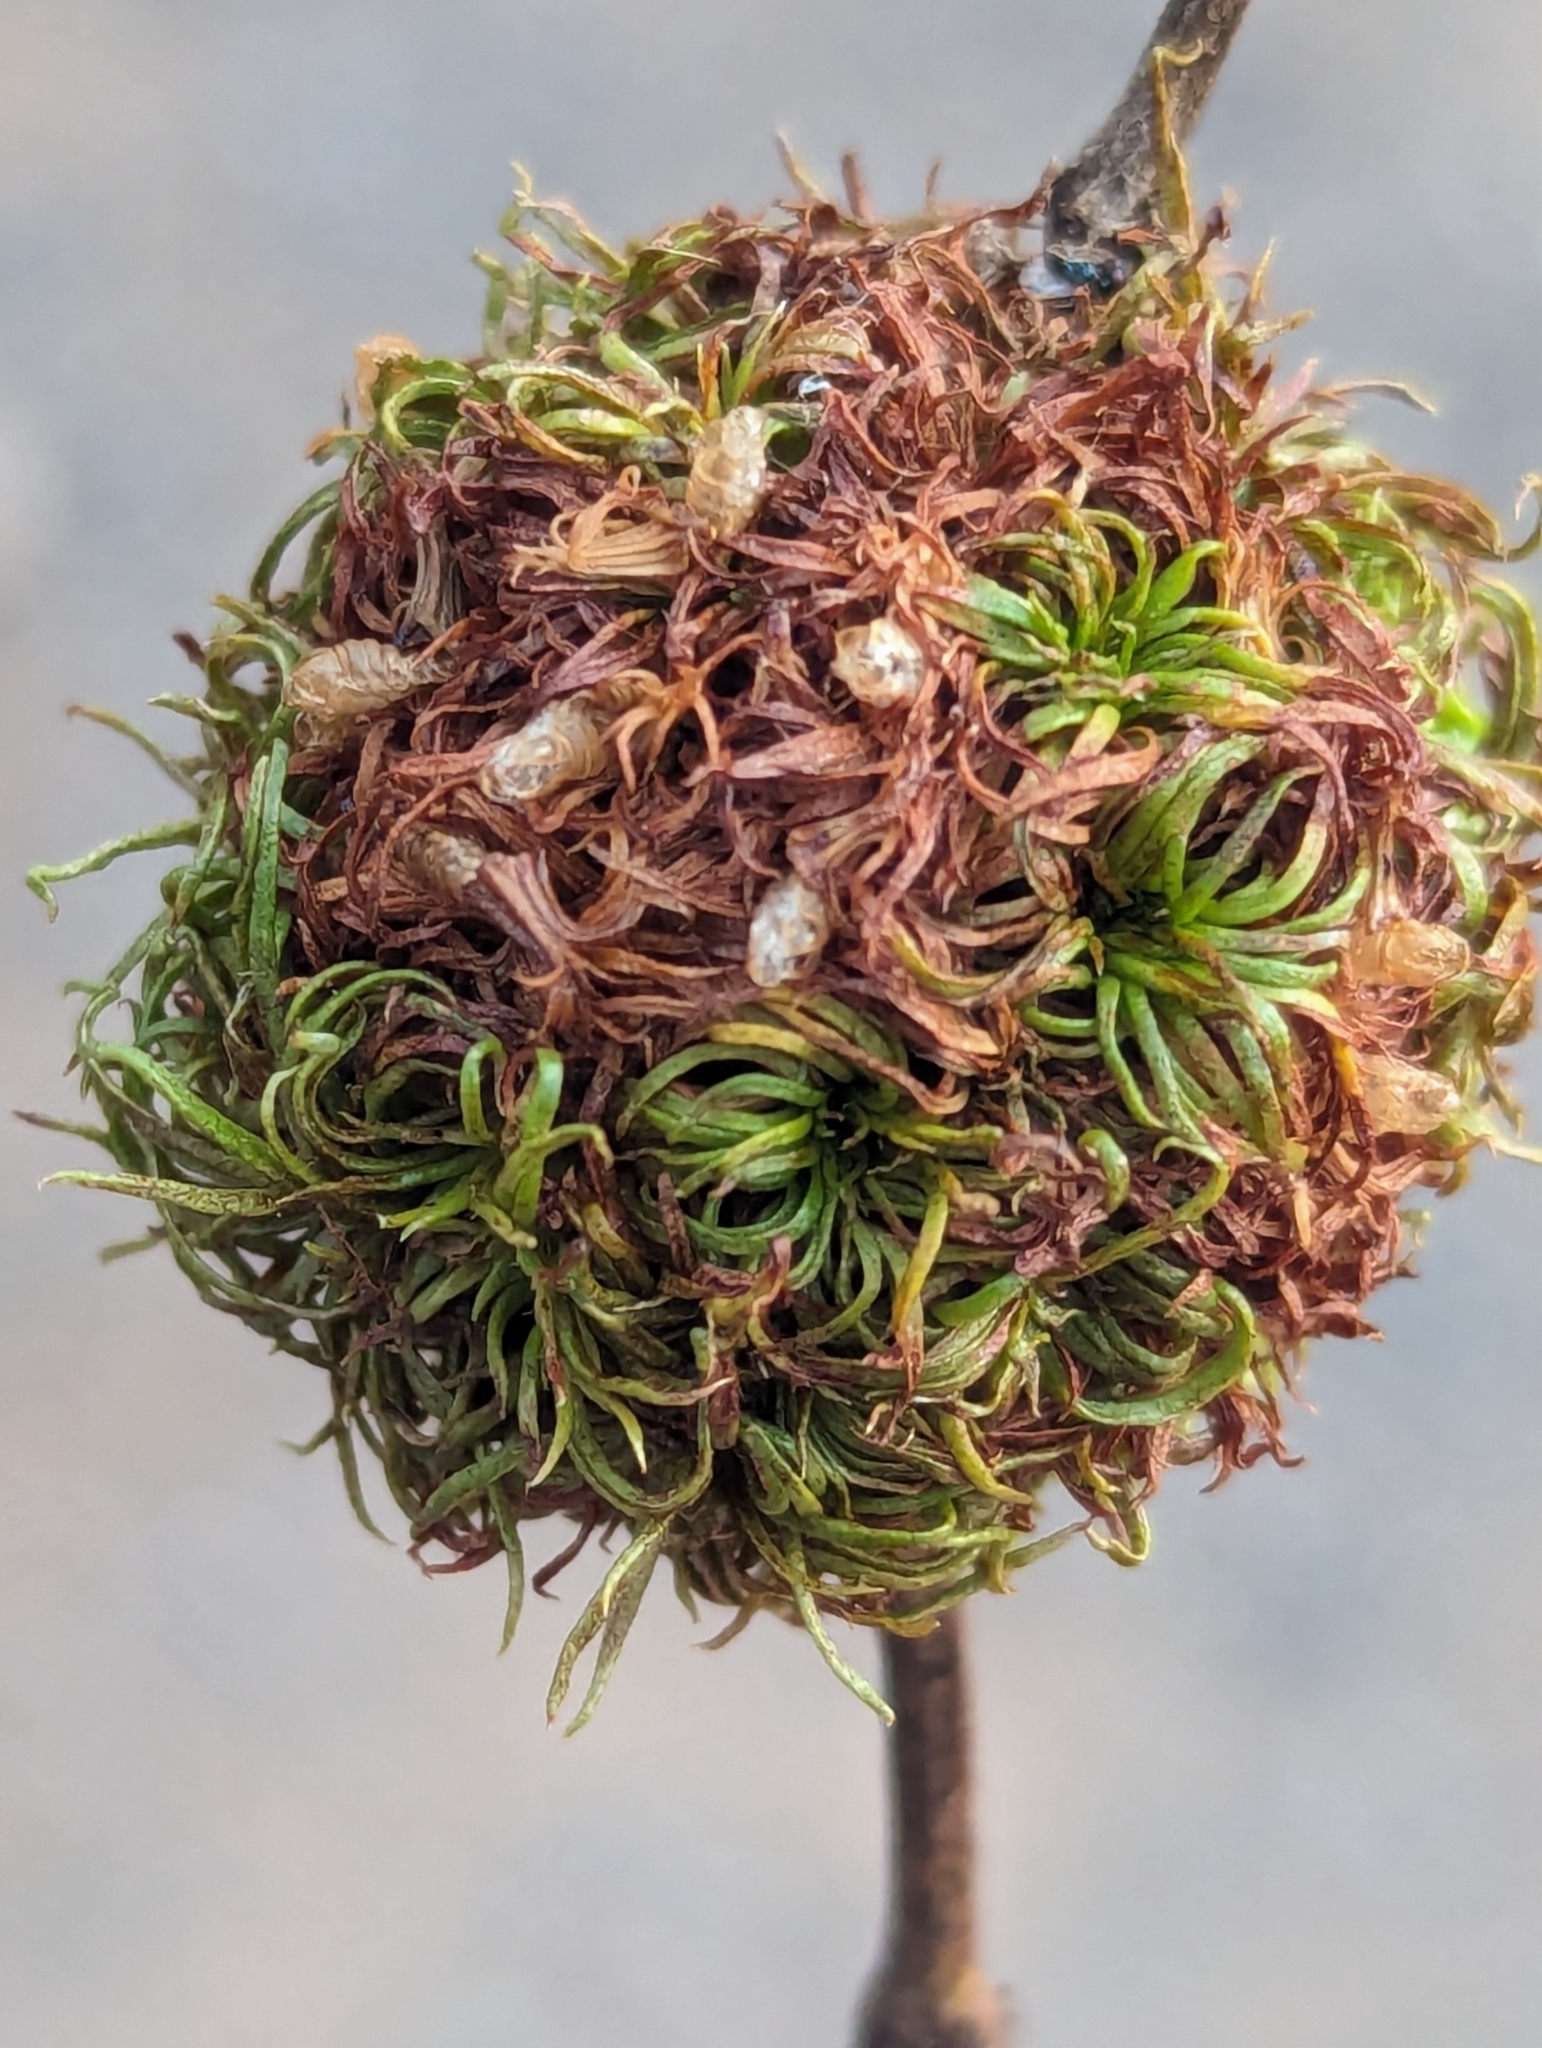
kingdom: Animalia
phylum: Arthropoda
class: Insecta
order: Diptera
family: Cecidomyiidae
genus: Asphondylia
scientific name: Asphondylia auripila
